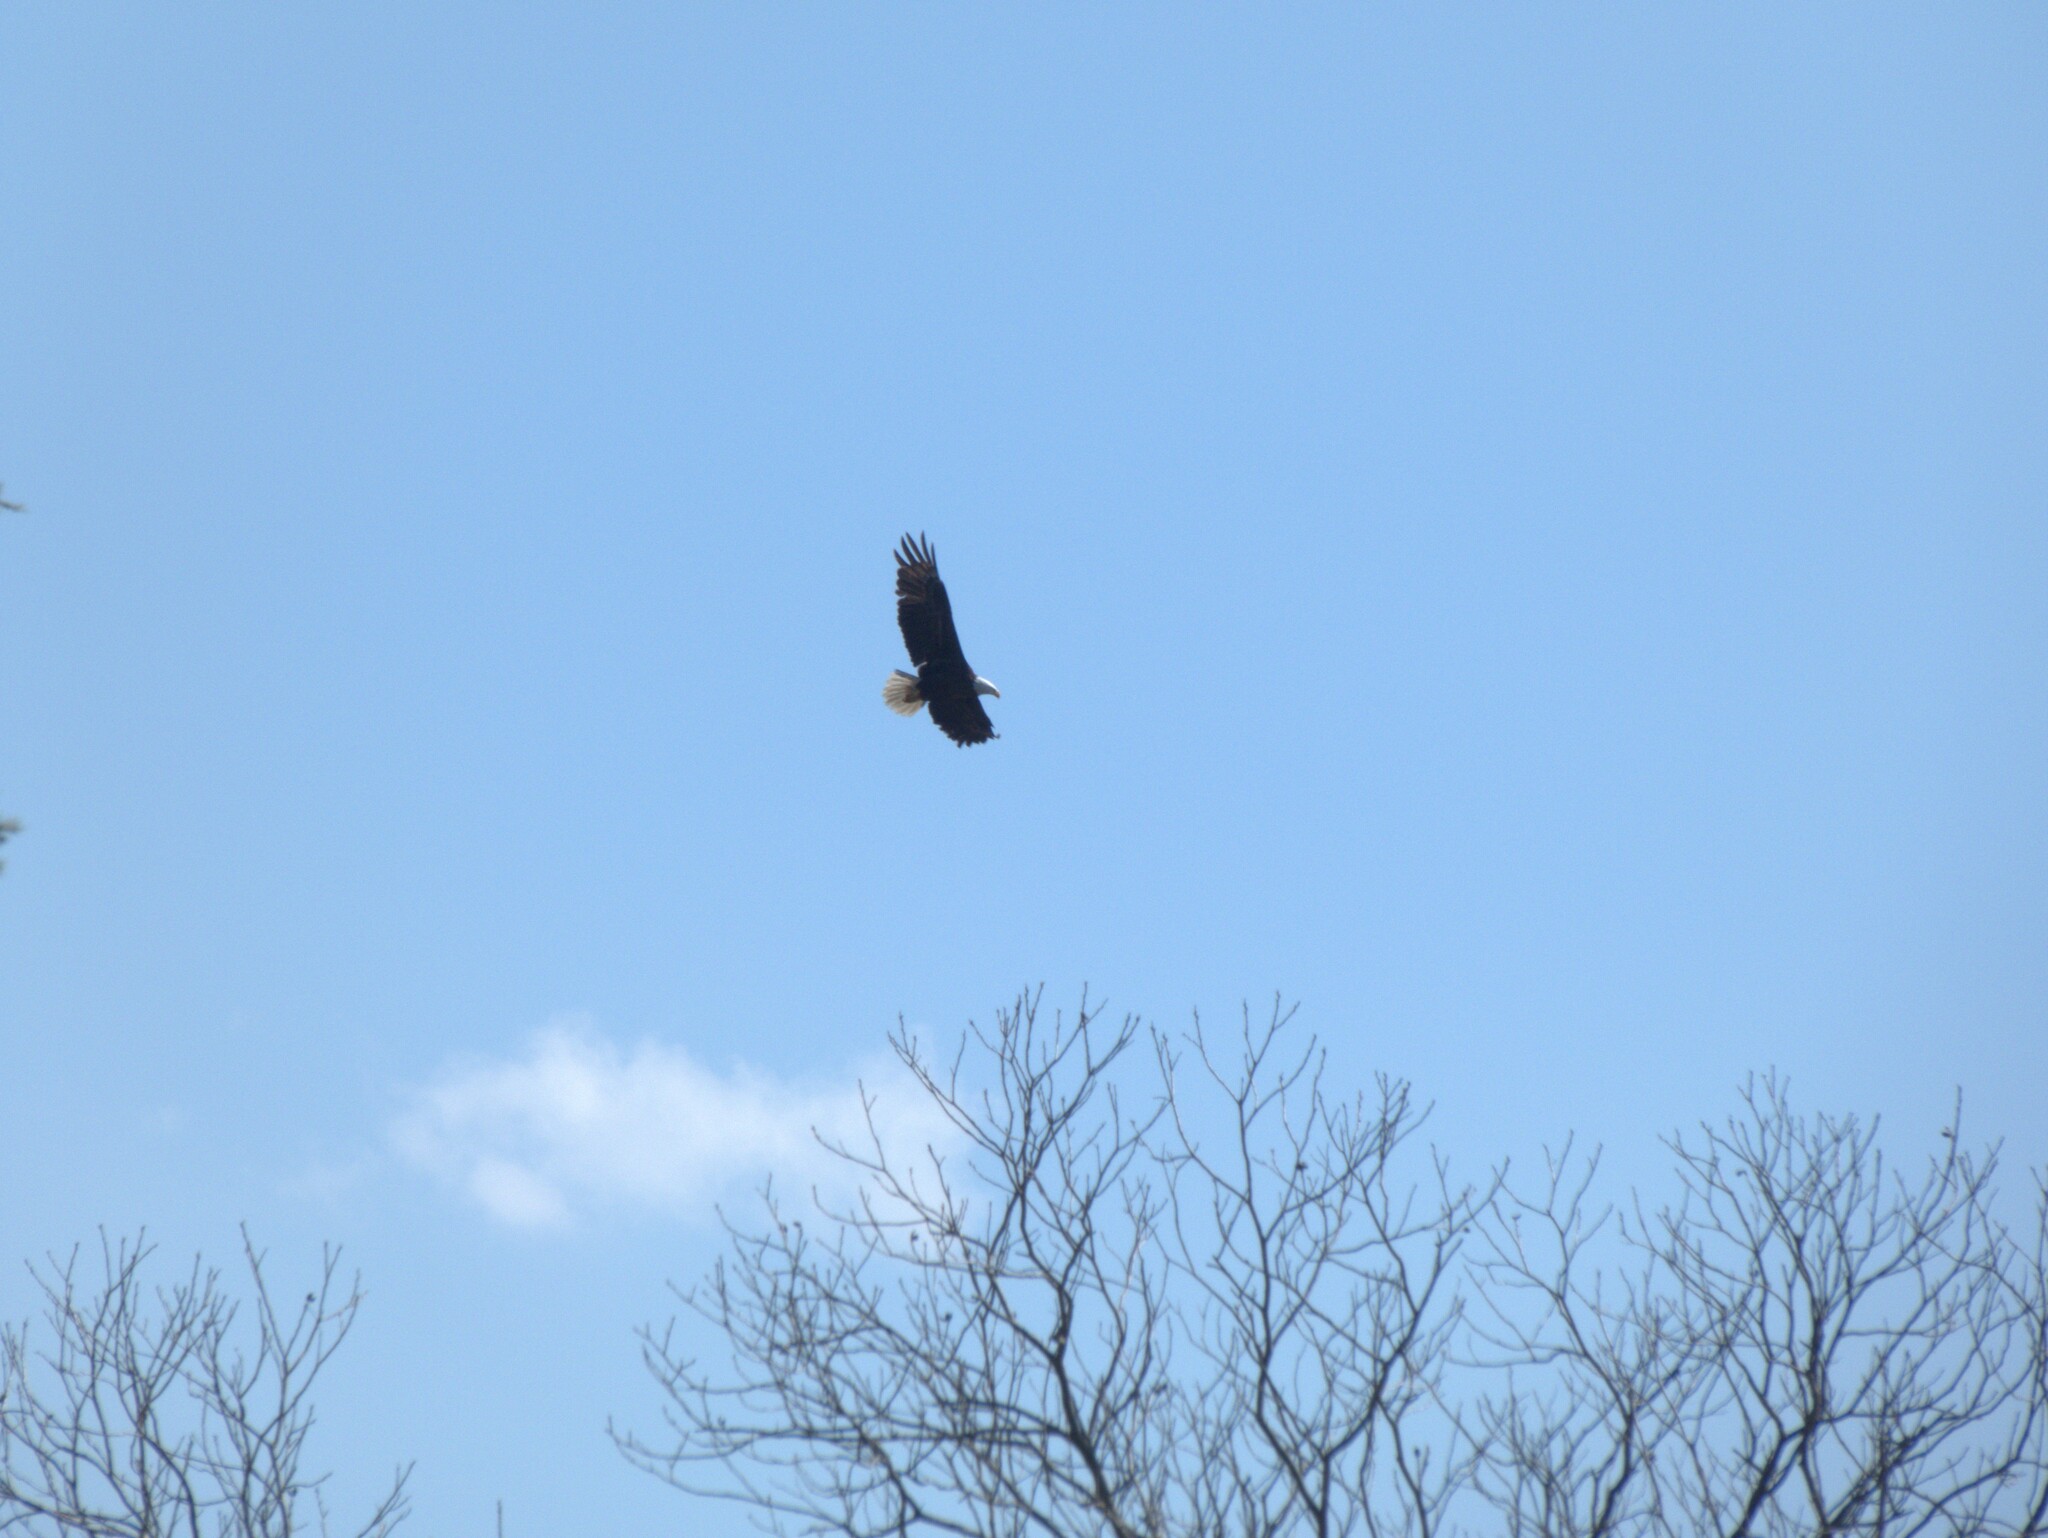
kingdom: Animalia
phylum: Chordata
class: Aves
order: Accipitriformes
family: Accipitridae
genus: Haliaeetus
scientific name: Haliaeetus leucocephalus
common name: Bald eagle
